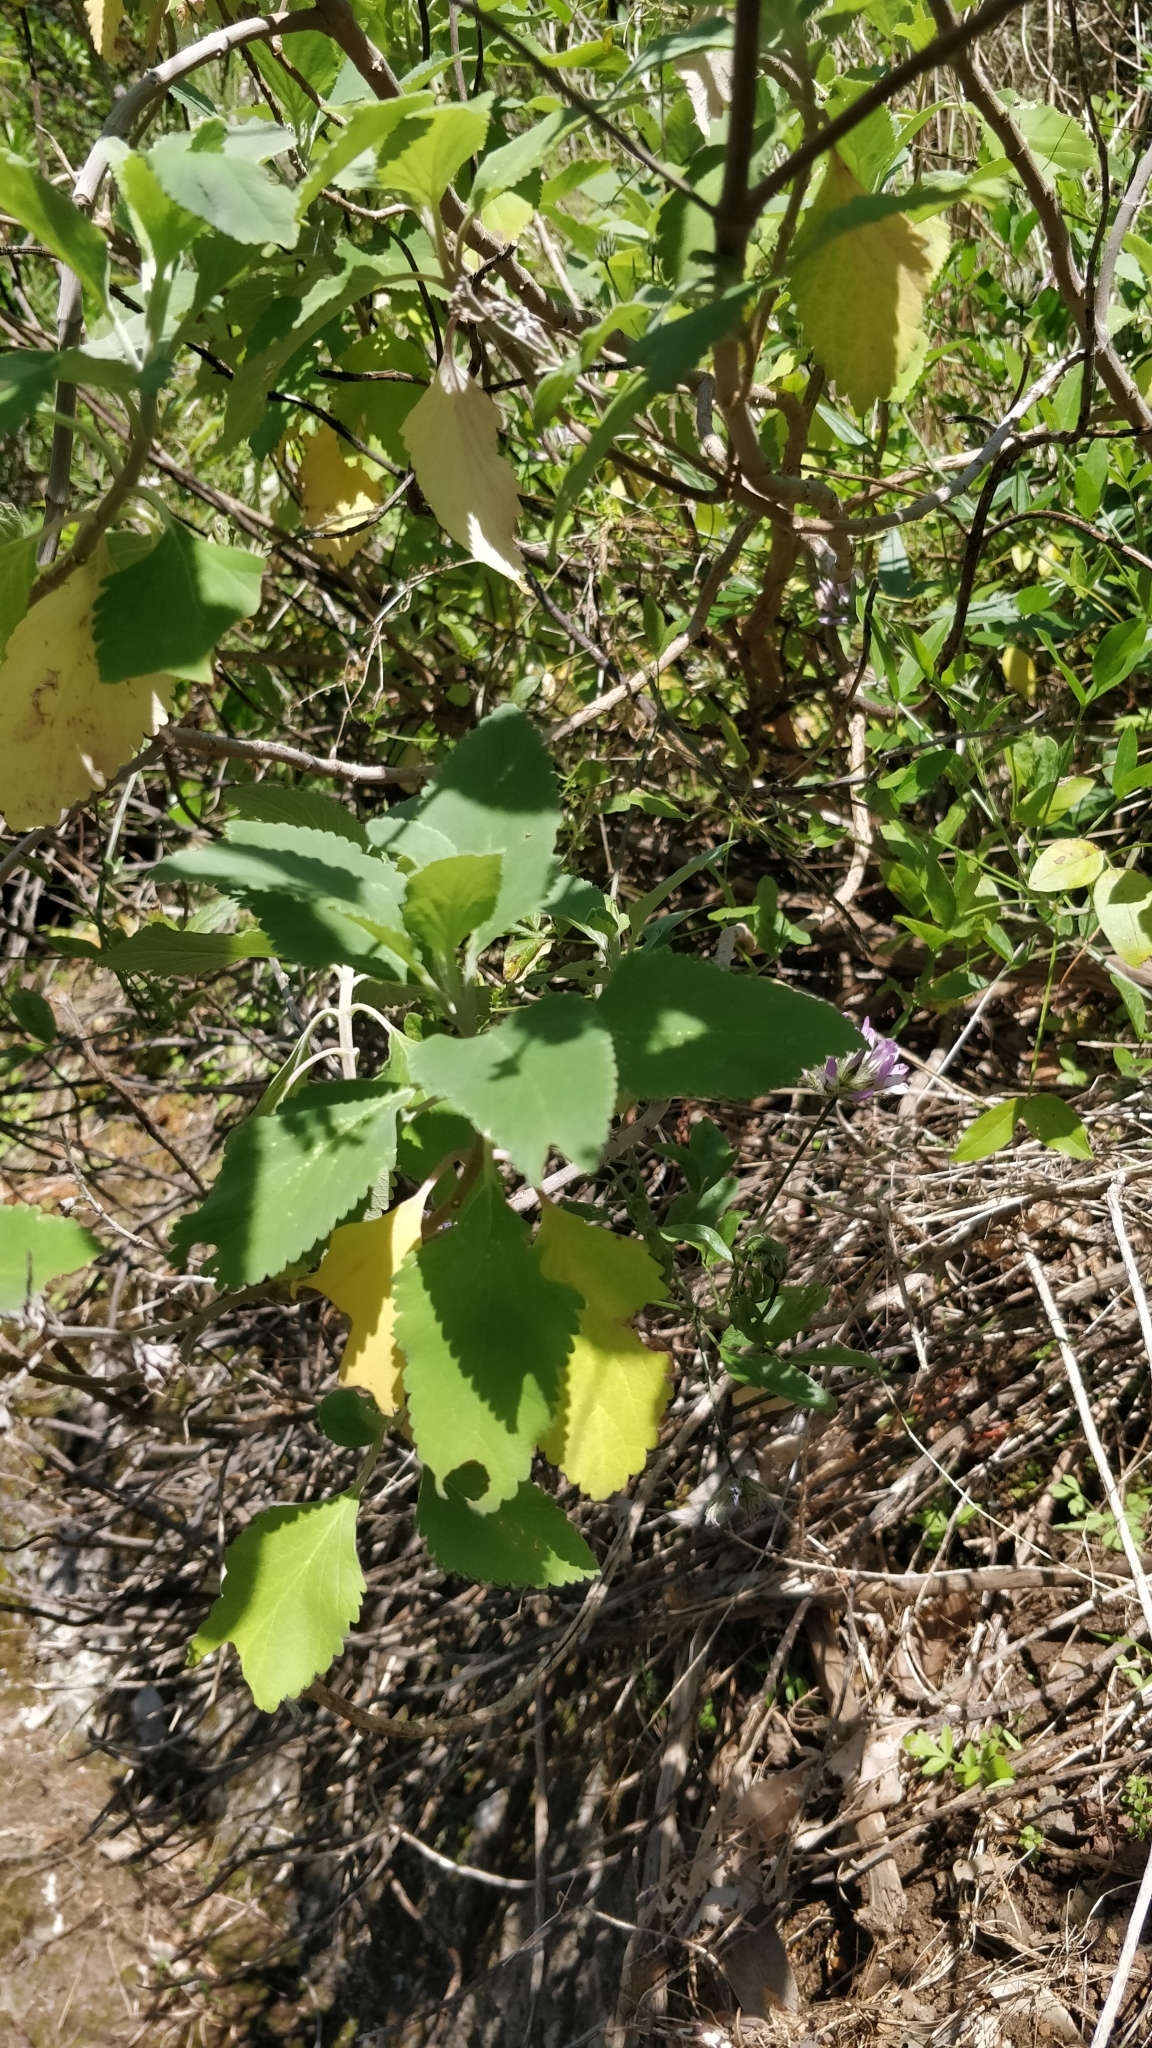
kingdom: Plantae
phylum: Tracheophyta
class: Magnoliopsida
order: Lamiales
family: Lamiaceae
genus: Teucrium
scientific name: Teucrium betonicum
